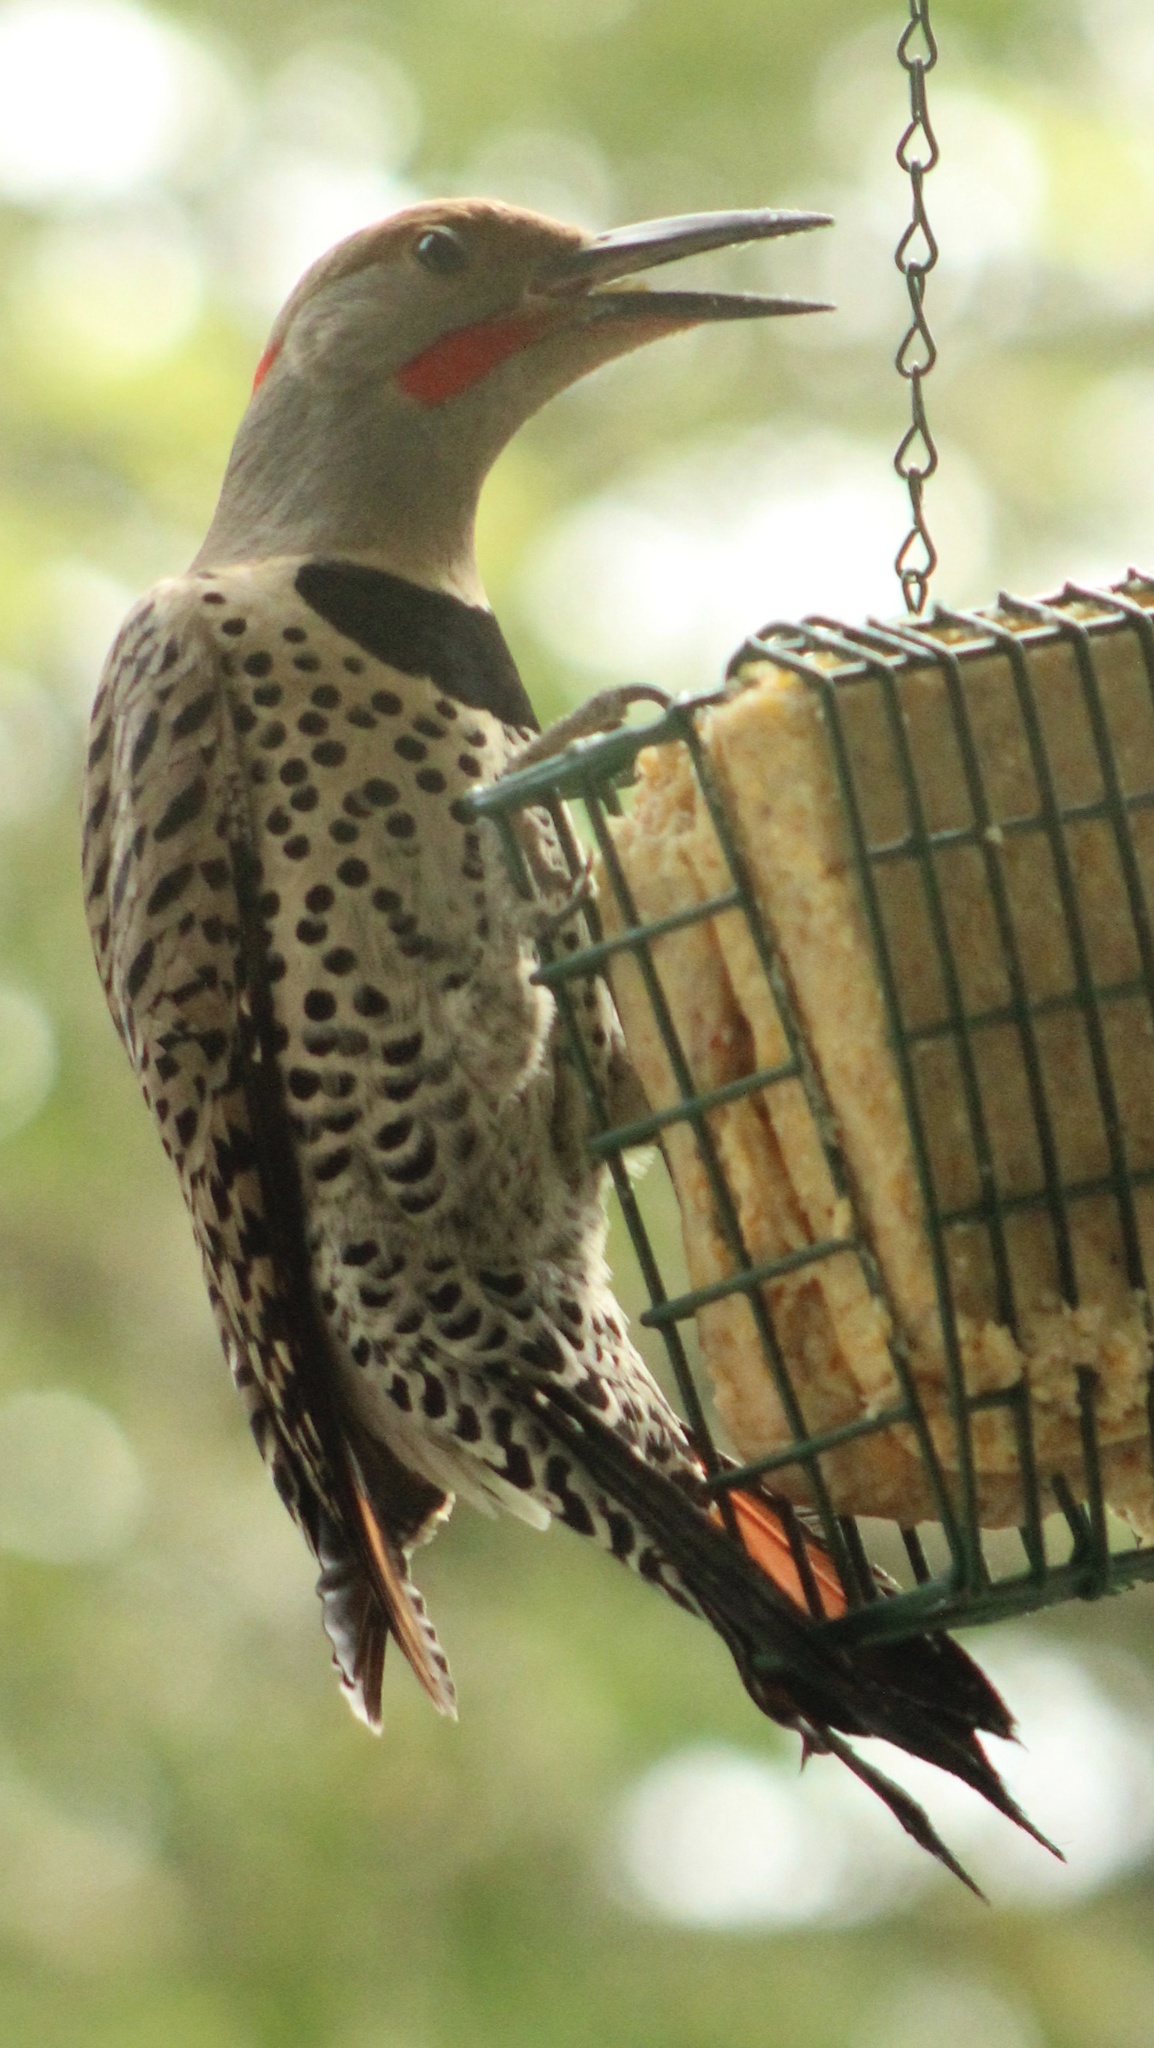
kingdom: Animalia
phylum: Chordata
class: Aves
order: Piciformes
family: Picidae
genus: Colaptes
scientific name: Colaptes auratus
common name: Northern flicker
